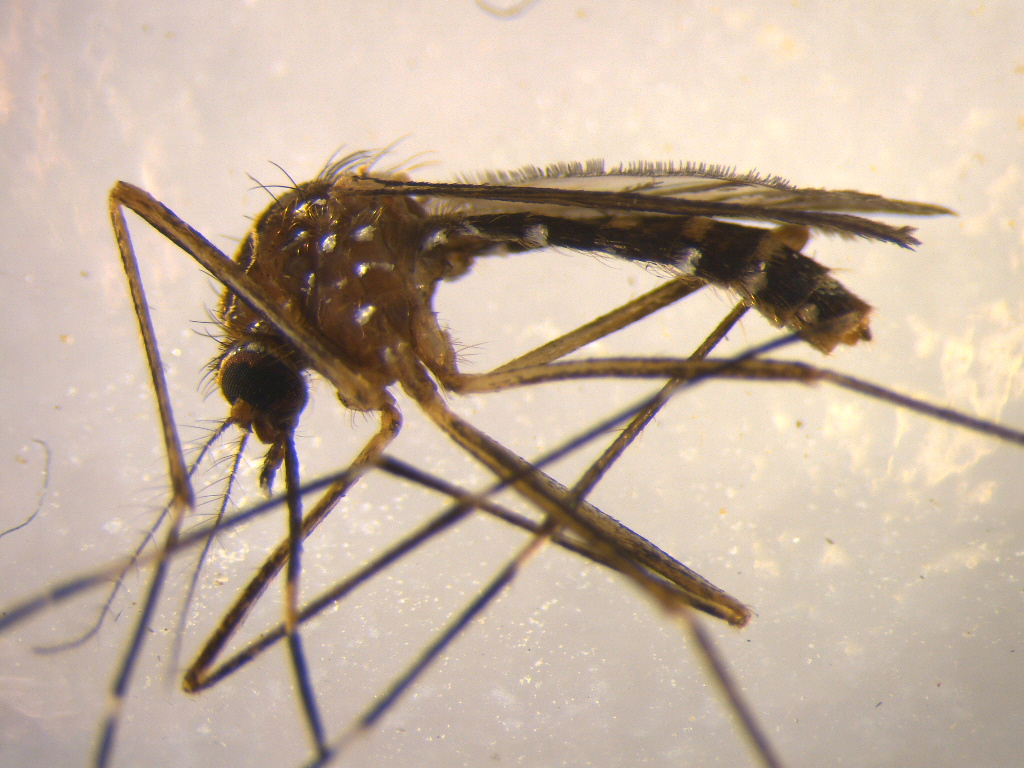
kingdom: Animalia
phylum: Arthropoda
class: Insecta
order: Diptera
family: Culicidae
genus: Aedes
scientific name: Aedes notoscriptus
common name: Australian backyard mosquito
